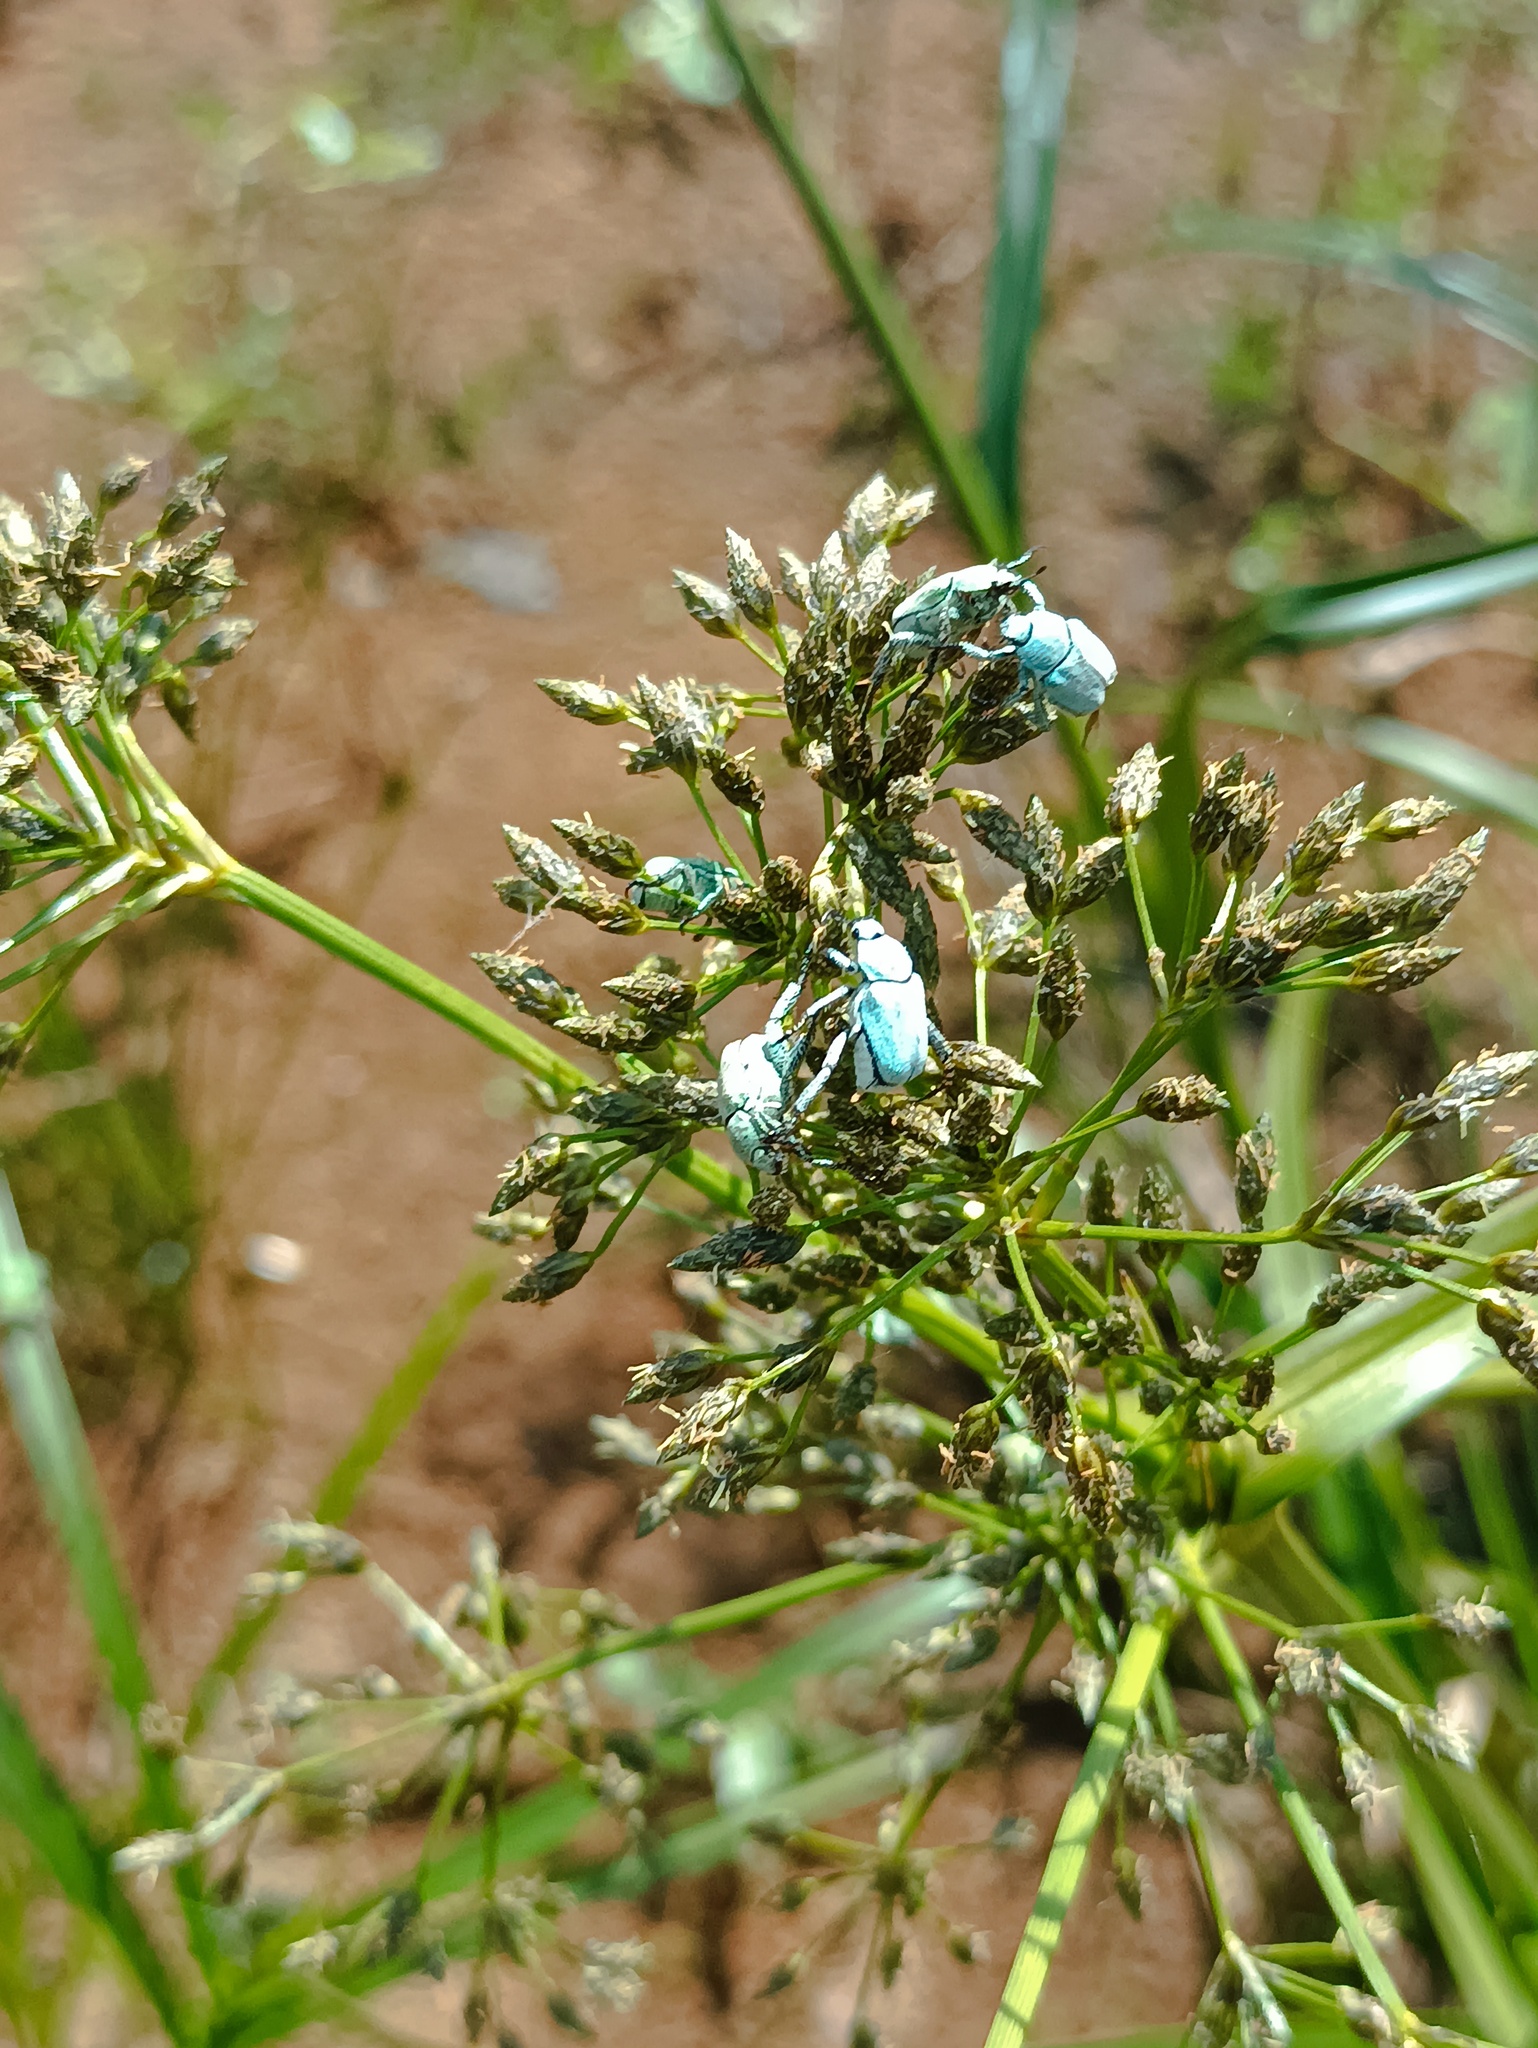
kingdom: Animalia
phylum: Arthropoda
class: Insecta
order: Coleoptera
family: Scarabaeidae
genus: Hoplia
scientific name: Hoplia parvula
